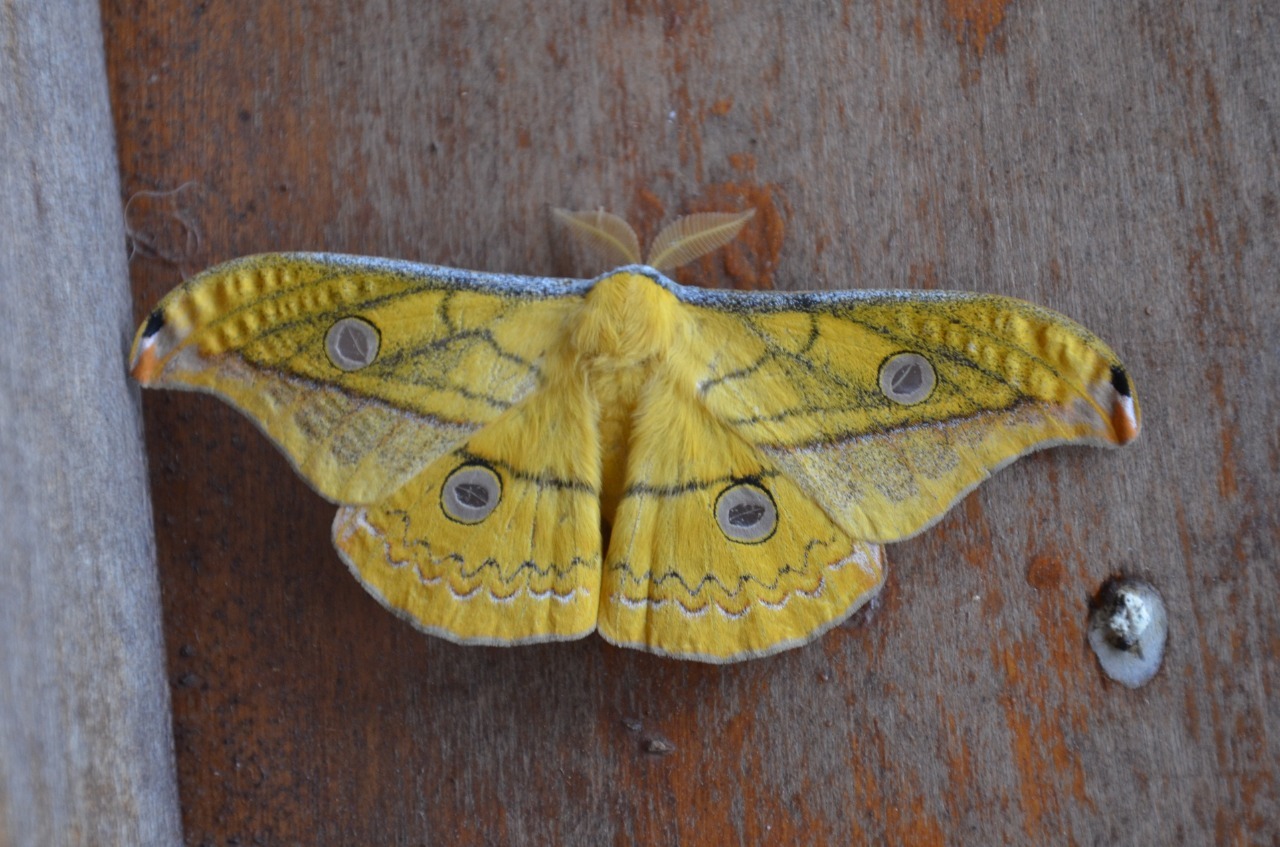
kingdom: Animalia
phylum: Arthropoda
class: Insecta
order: Lepidoptera
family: Saturniidae
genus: Copaxa
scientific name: Copaxa flavina
